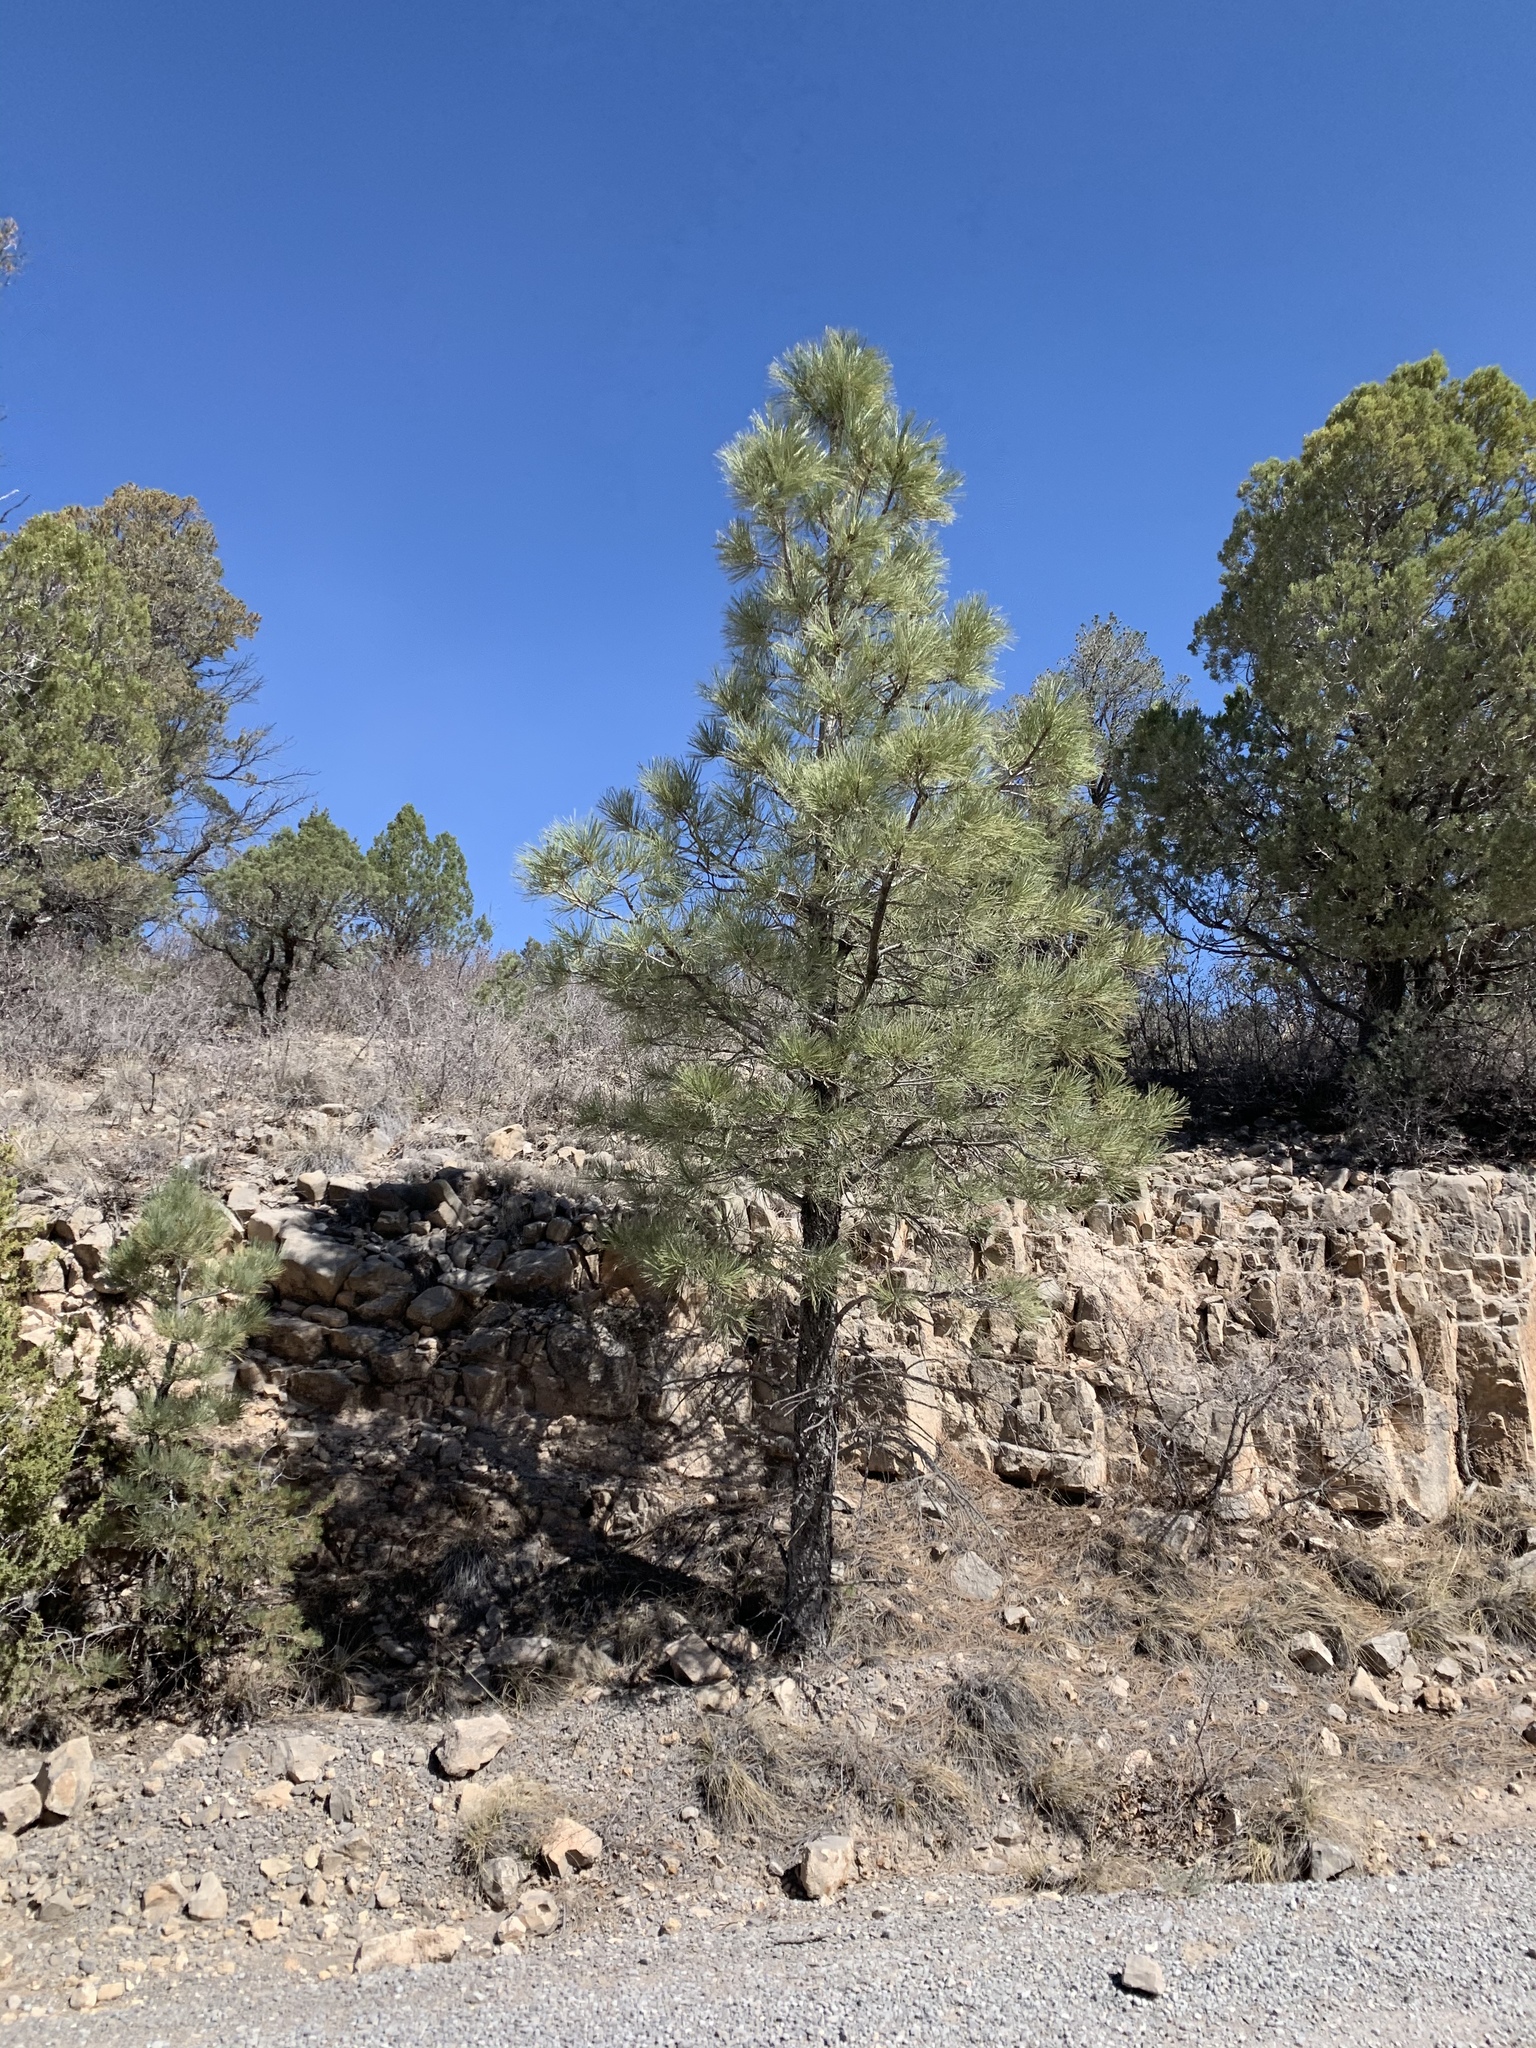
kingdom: Plantae
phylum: Tracheophyta
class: Pinopsida
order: Pinales
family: Pinaceae
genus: Pinus
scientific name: Pinus ponderosa
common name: Western yellow-pine
